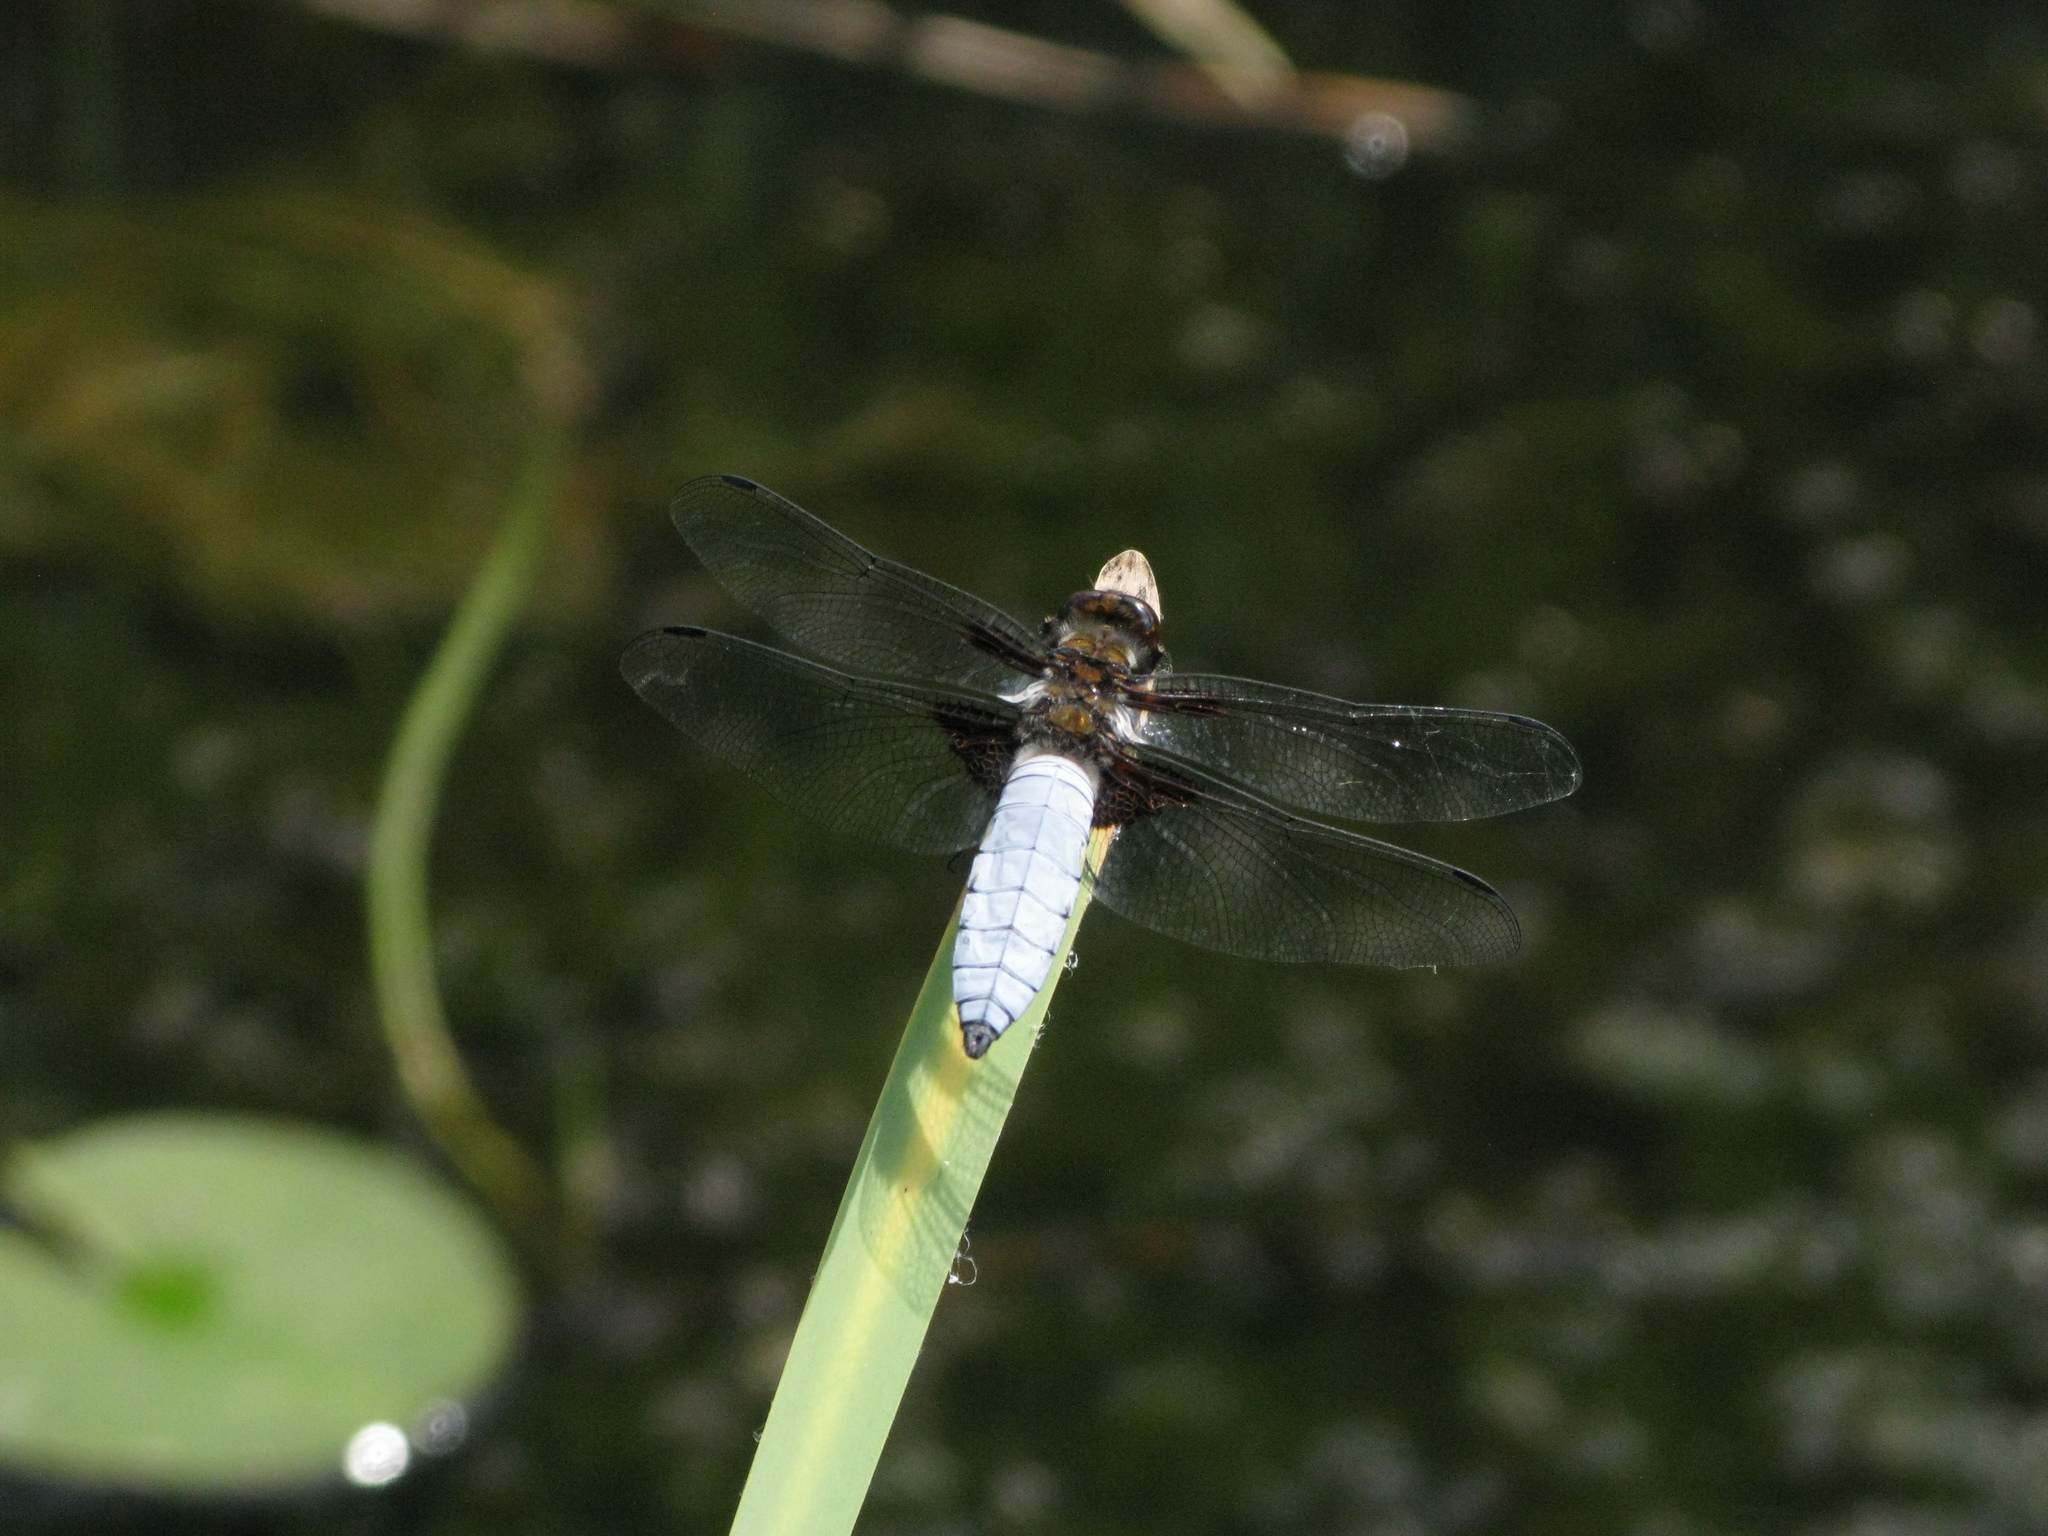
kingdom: Animalia
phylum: Arthropoda
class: Insecta
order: Odonata
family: Libellulidae
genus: Libellula
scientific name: Libellula depressa
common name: Broad-bodied chaser
